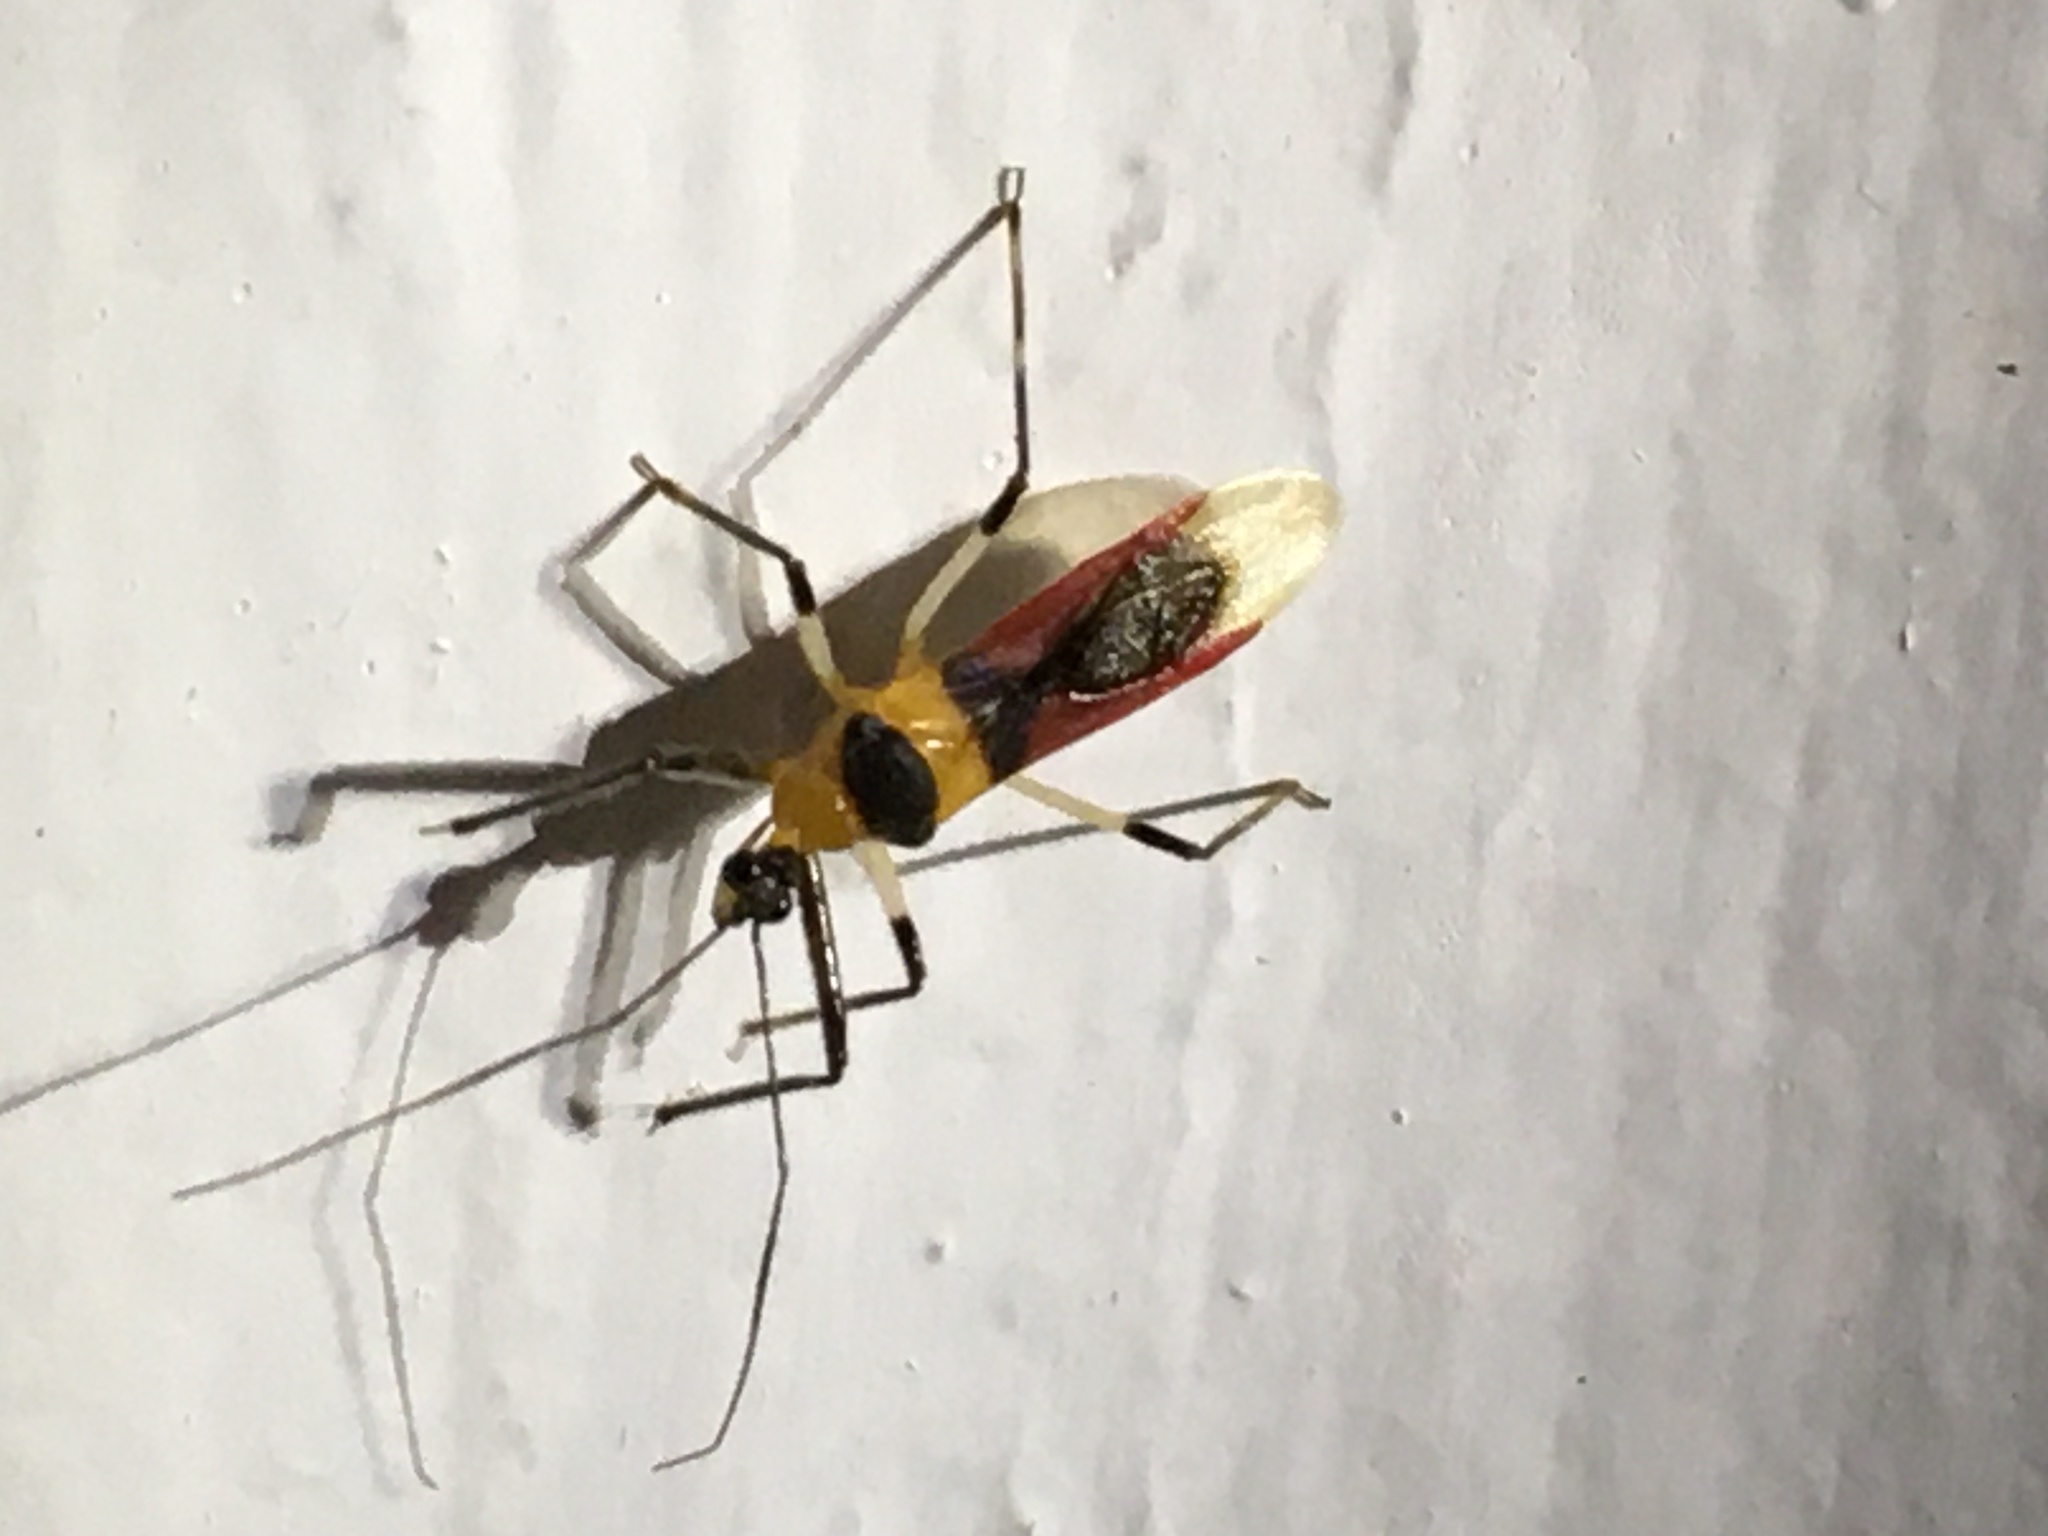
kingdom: Animalia
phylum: Arthropoda
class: Insecta
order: Hemiptera
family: Reduviidae
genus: Castolus
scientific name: Castolus tricolor
